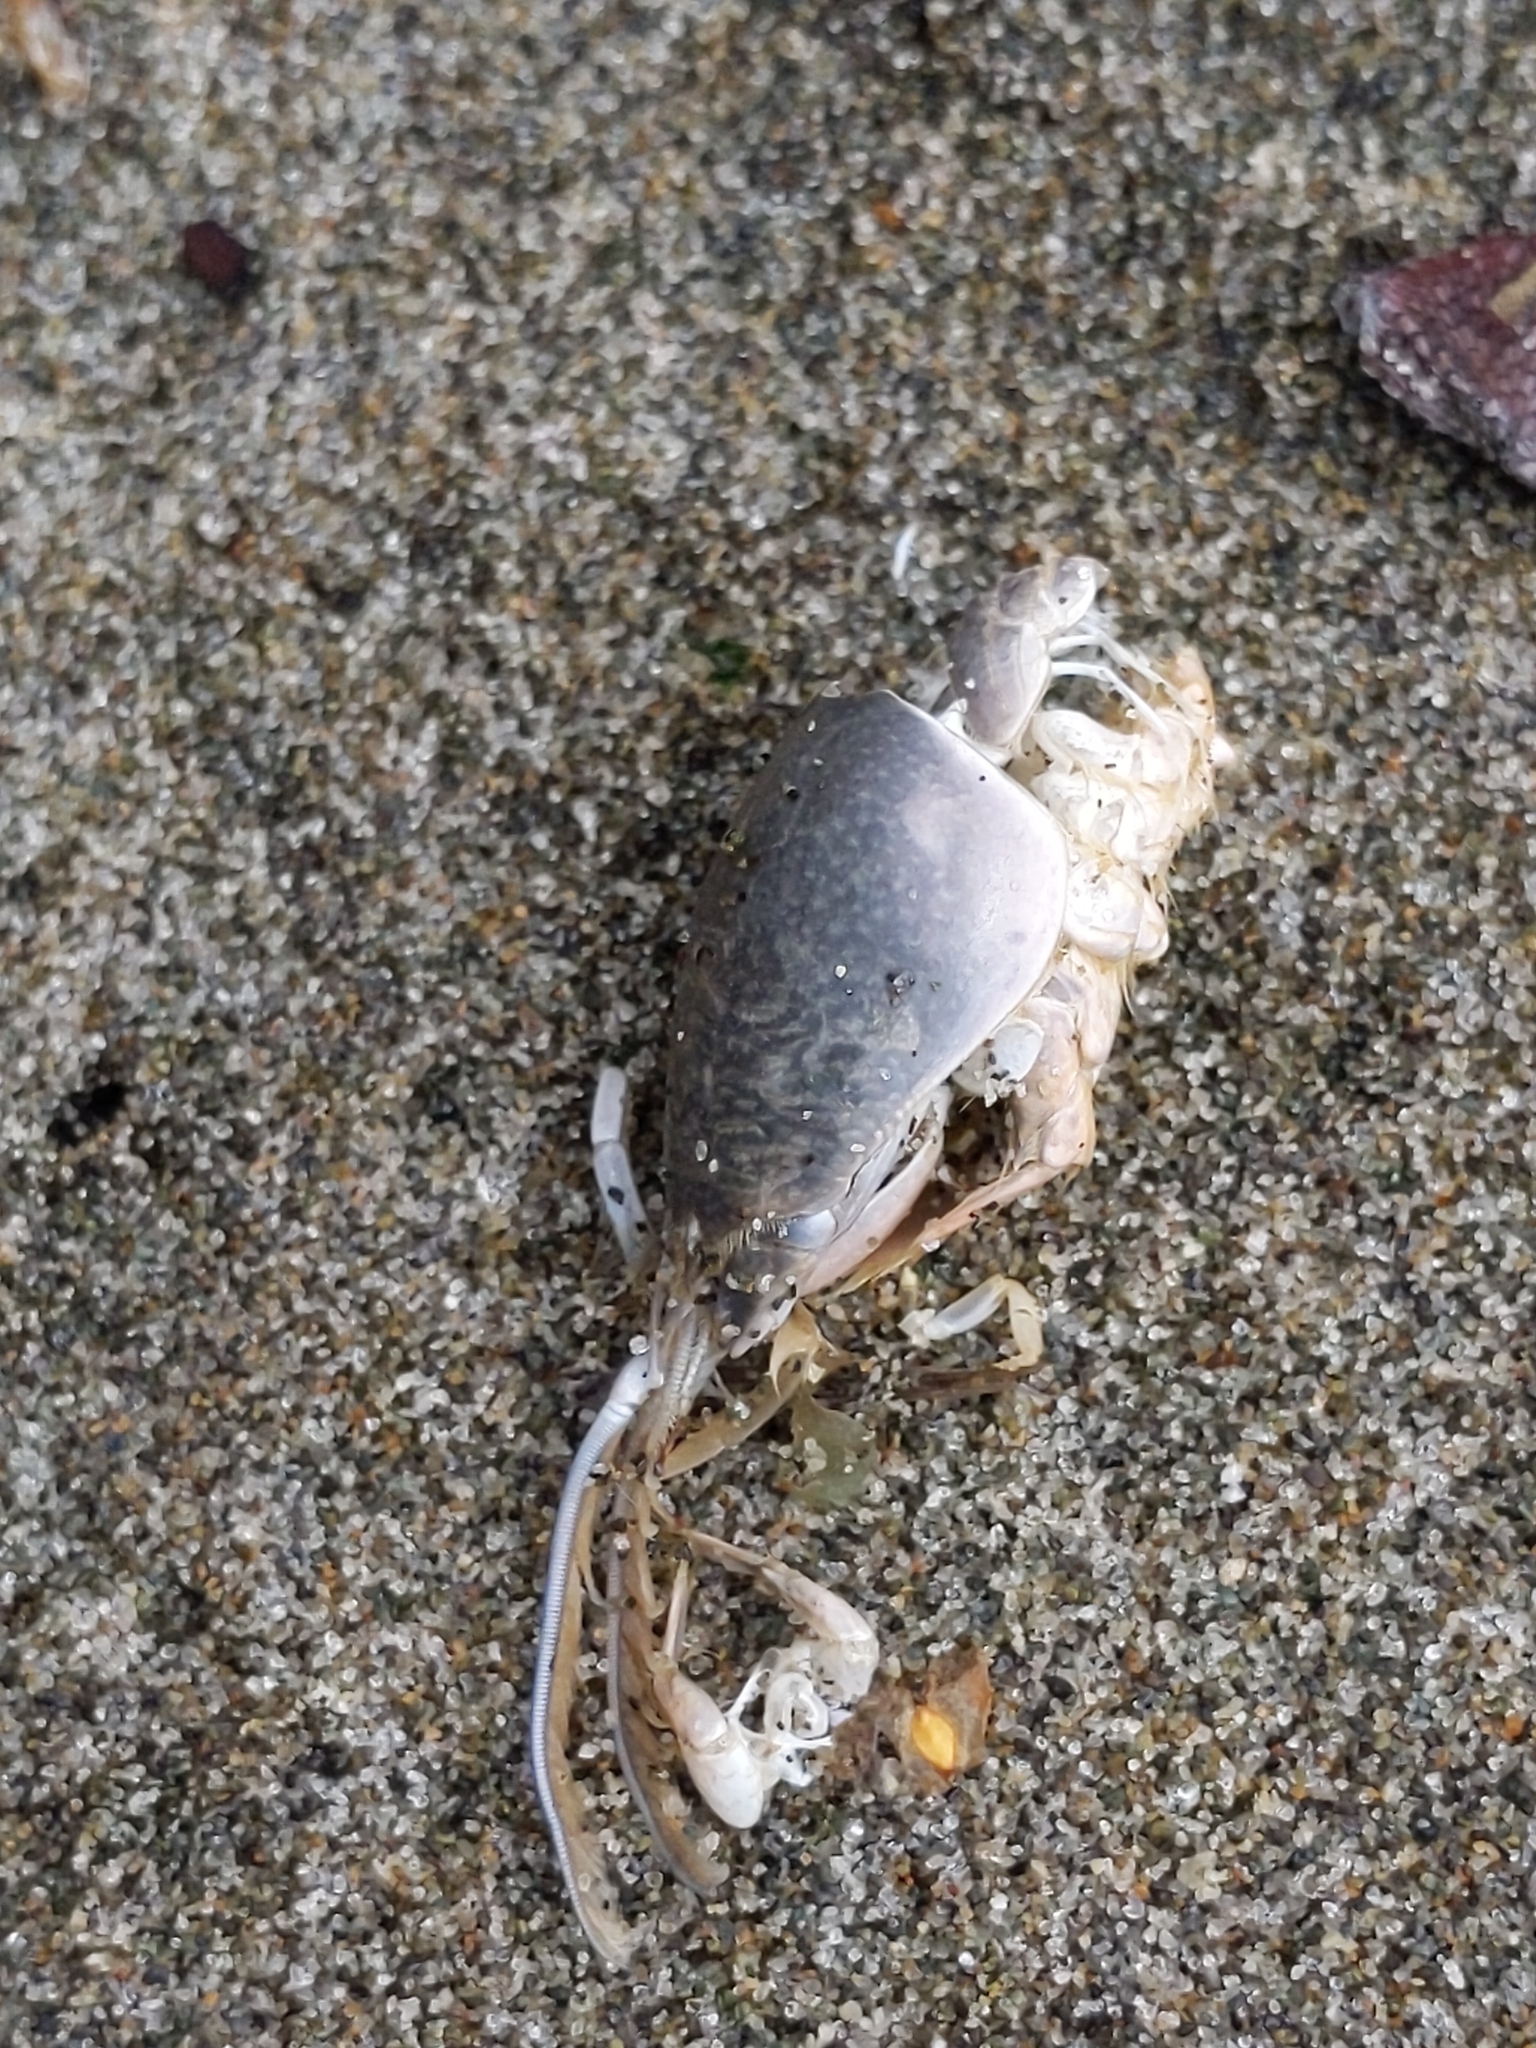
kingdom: Animalia
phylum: Arthropoda
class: Malacostraca
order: Decapoda
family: Hippidae
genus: Emerita
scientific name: Emerita analoga
